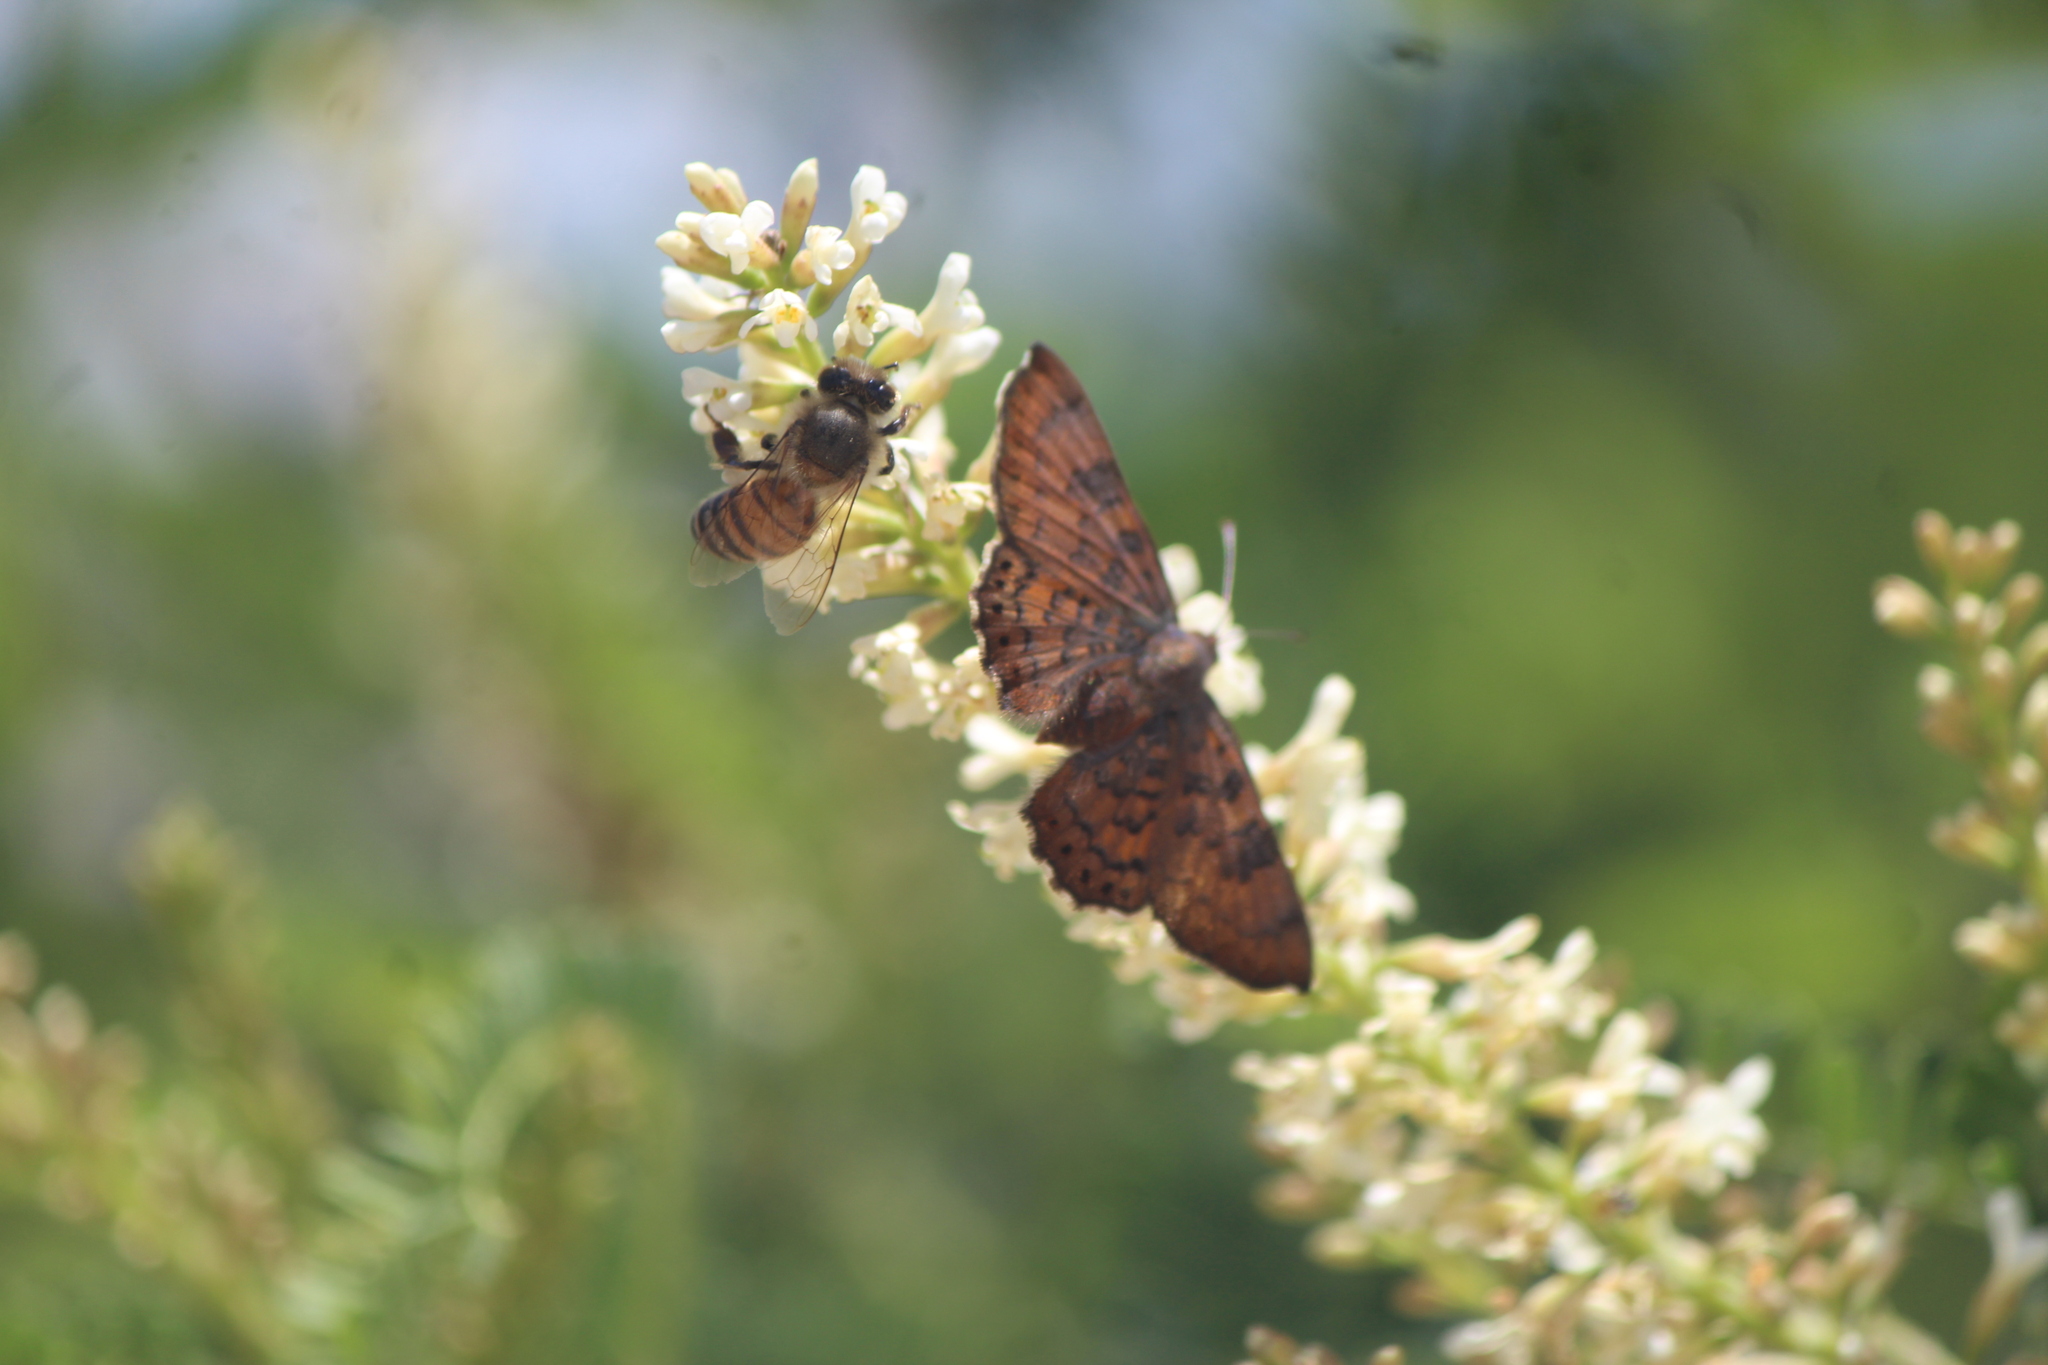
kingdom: Animalia
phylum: Arthropoda
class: Insecta
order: Hymenoptera
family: Apidae
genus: Apis
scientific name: Apis mellifera
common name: Honey bee
